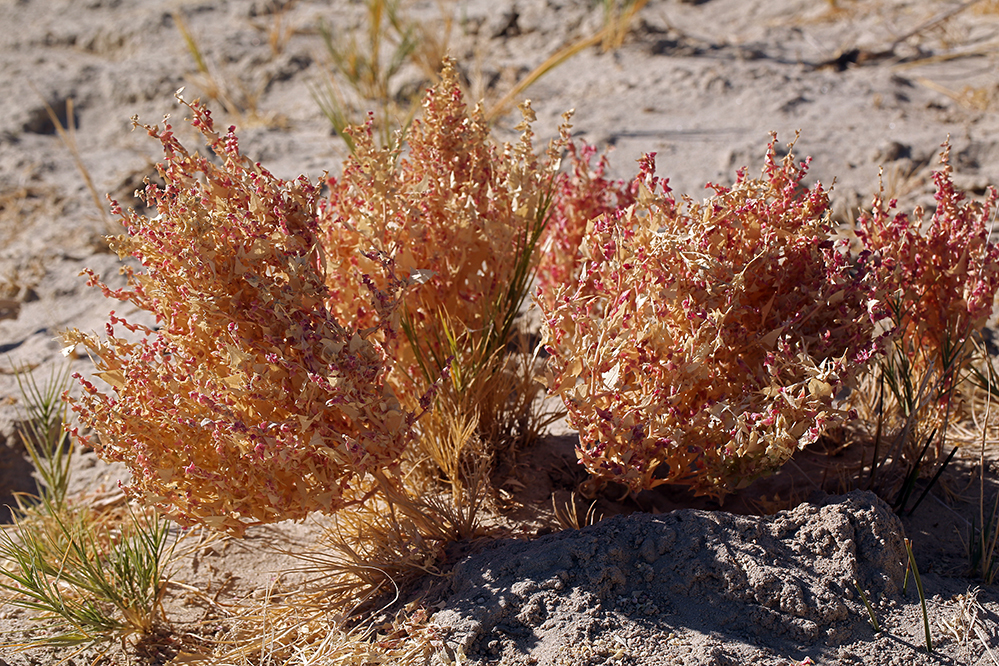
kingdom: Plantae
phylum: Tracheophyta
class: Magnoliopsida
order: Caryophyllales
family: Amaranthaceae
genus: Stutzia
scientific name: Stutzia covillei
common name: Coville's orach
